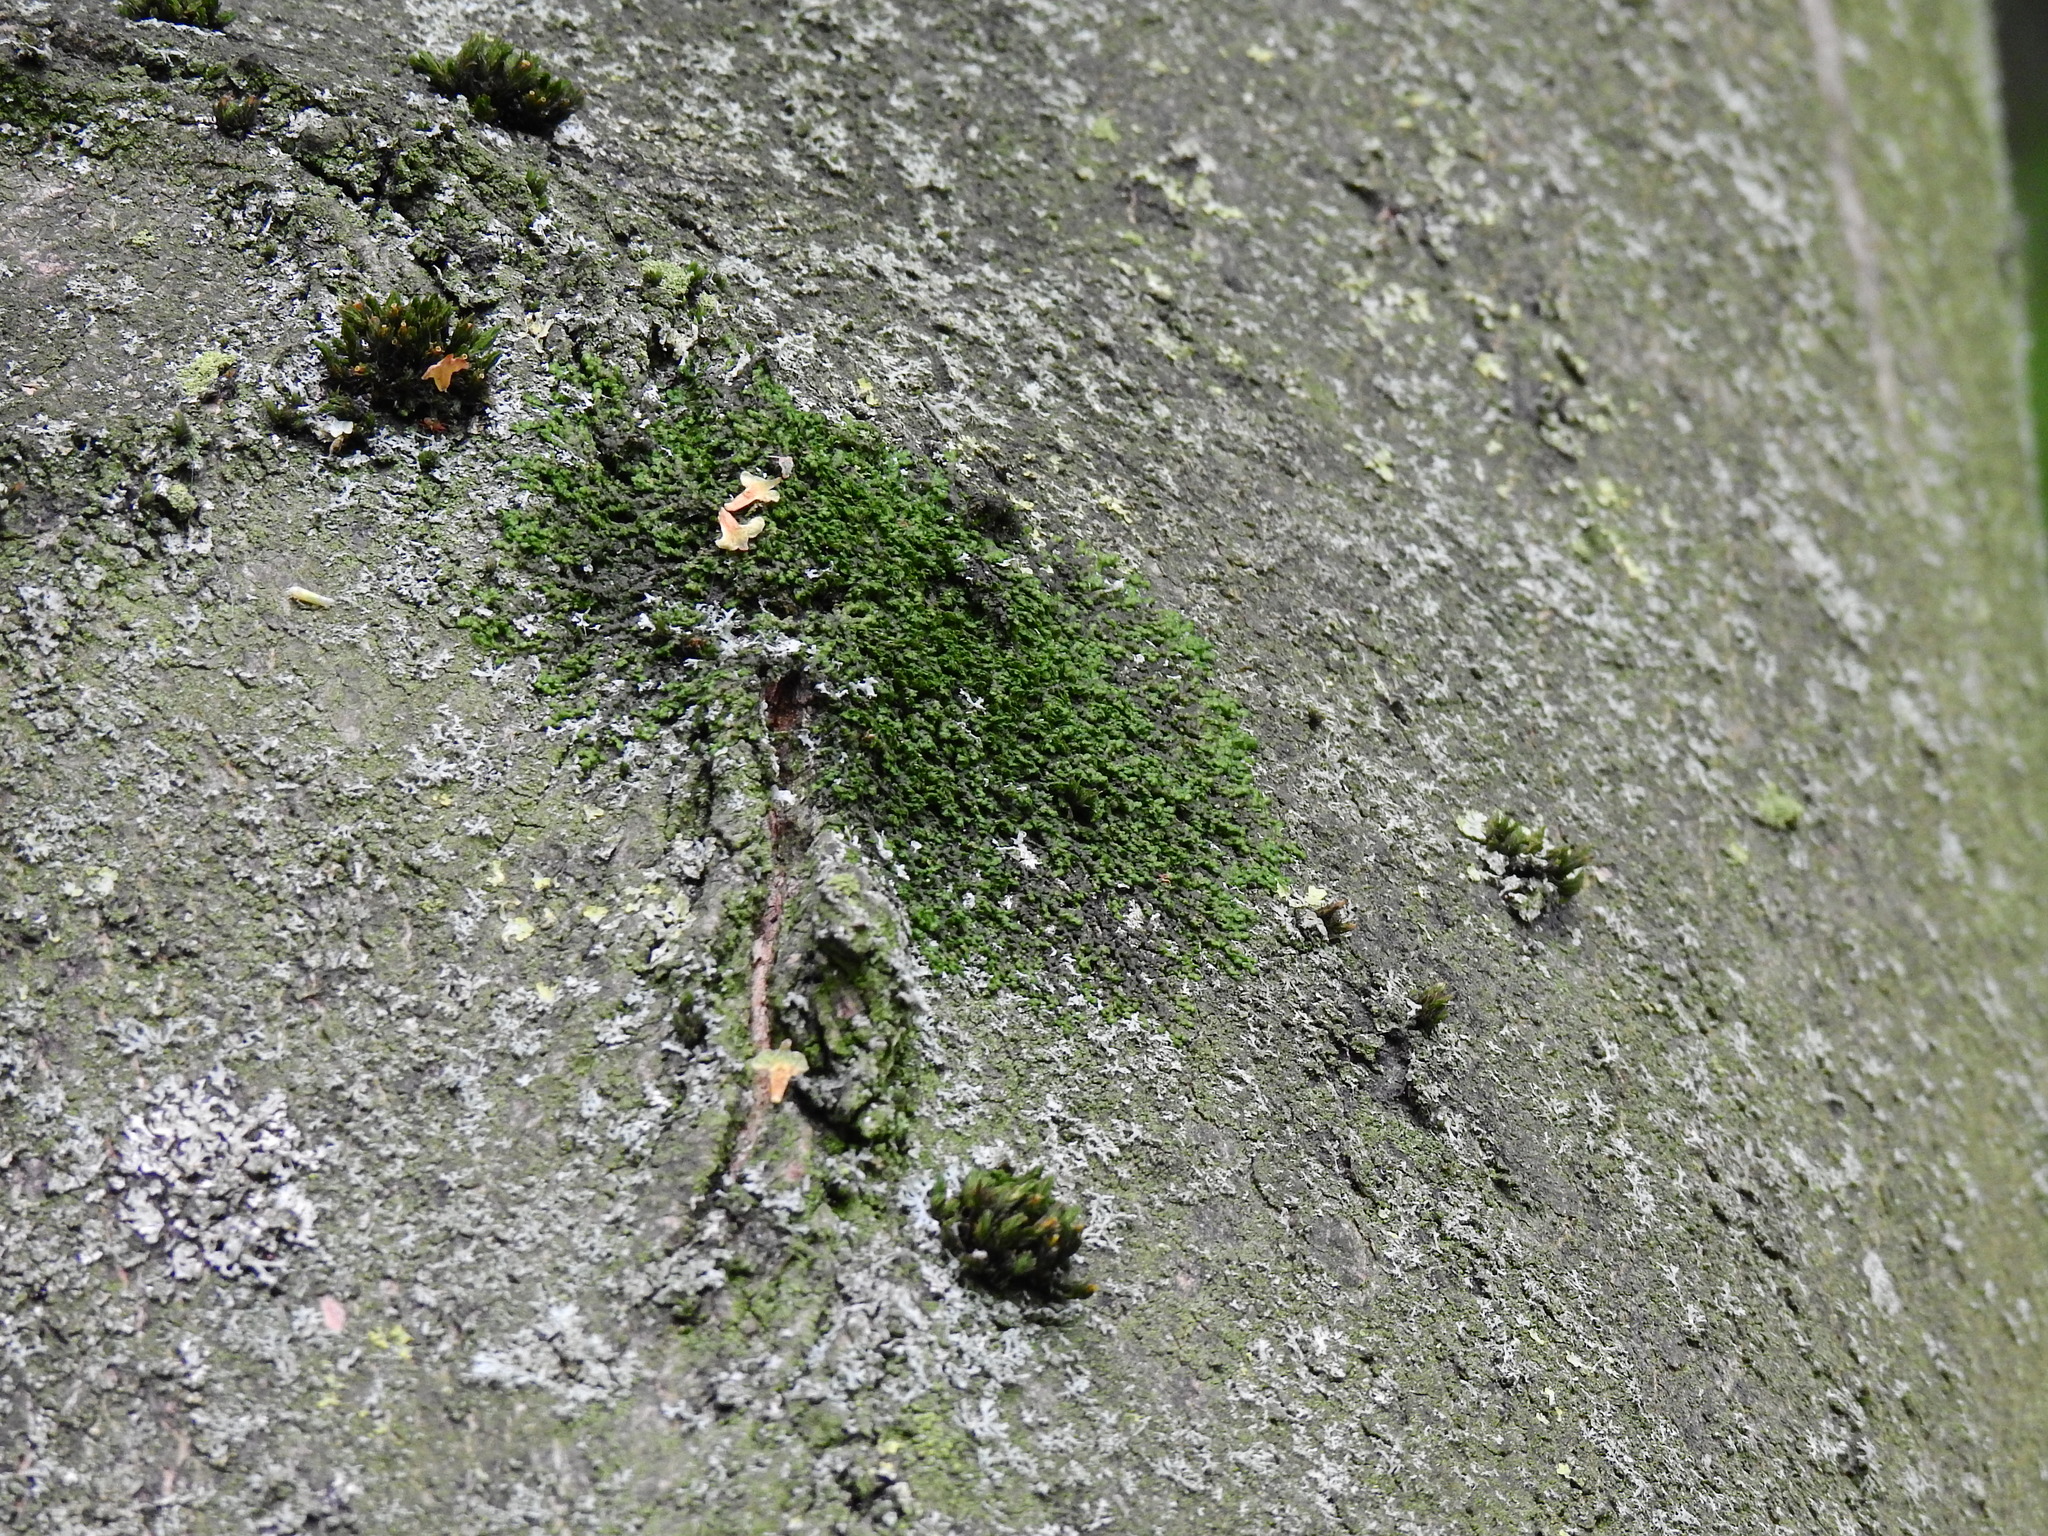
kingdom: Plantae
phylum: Marchantiophyta
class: Jungermanniopsida
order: Porellales
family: Frullaniaceae
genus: Frullania
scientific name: Frullania dilatata
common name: Dilated scalewort
